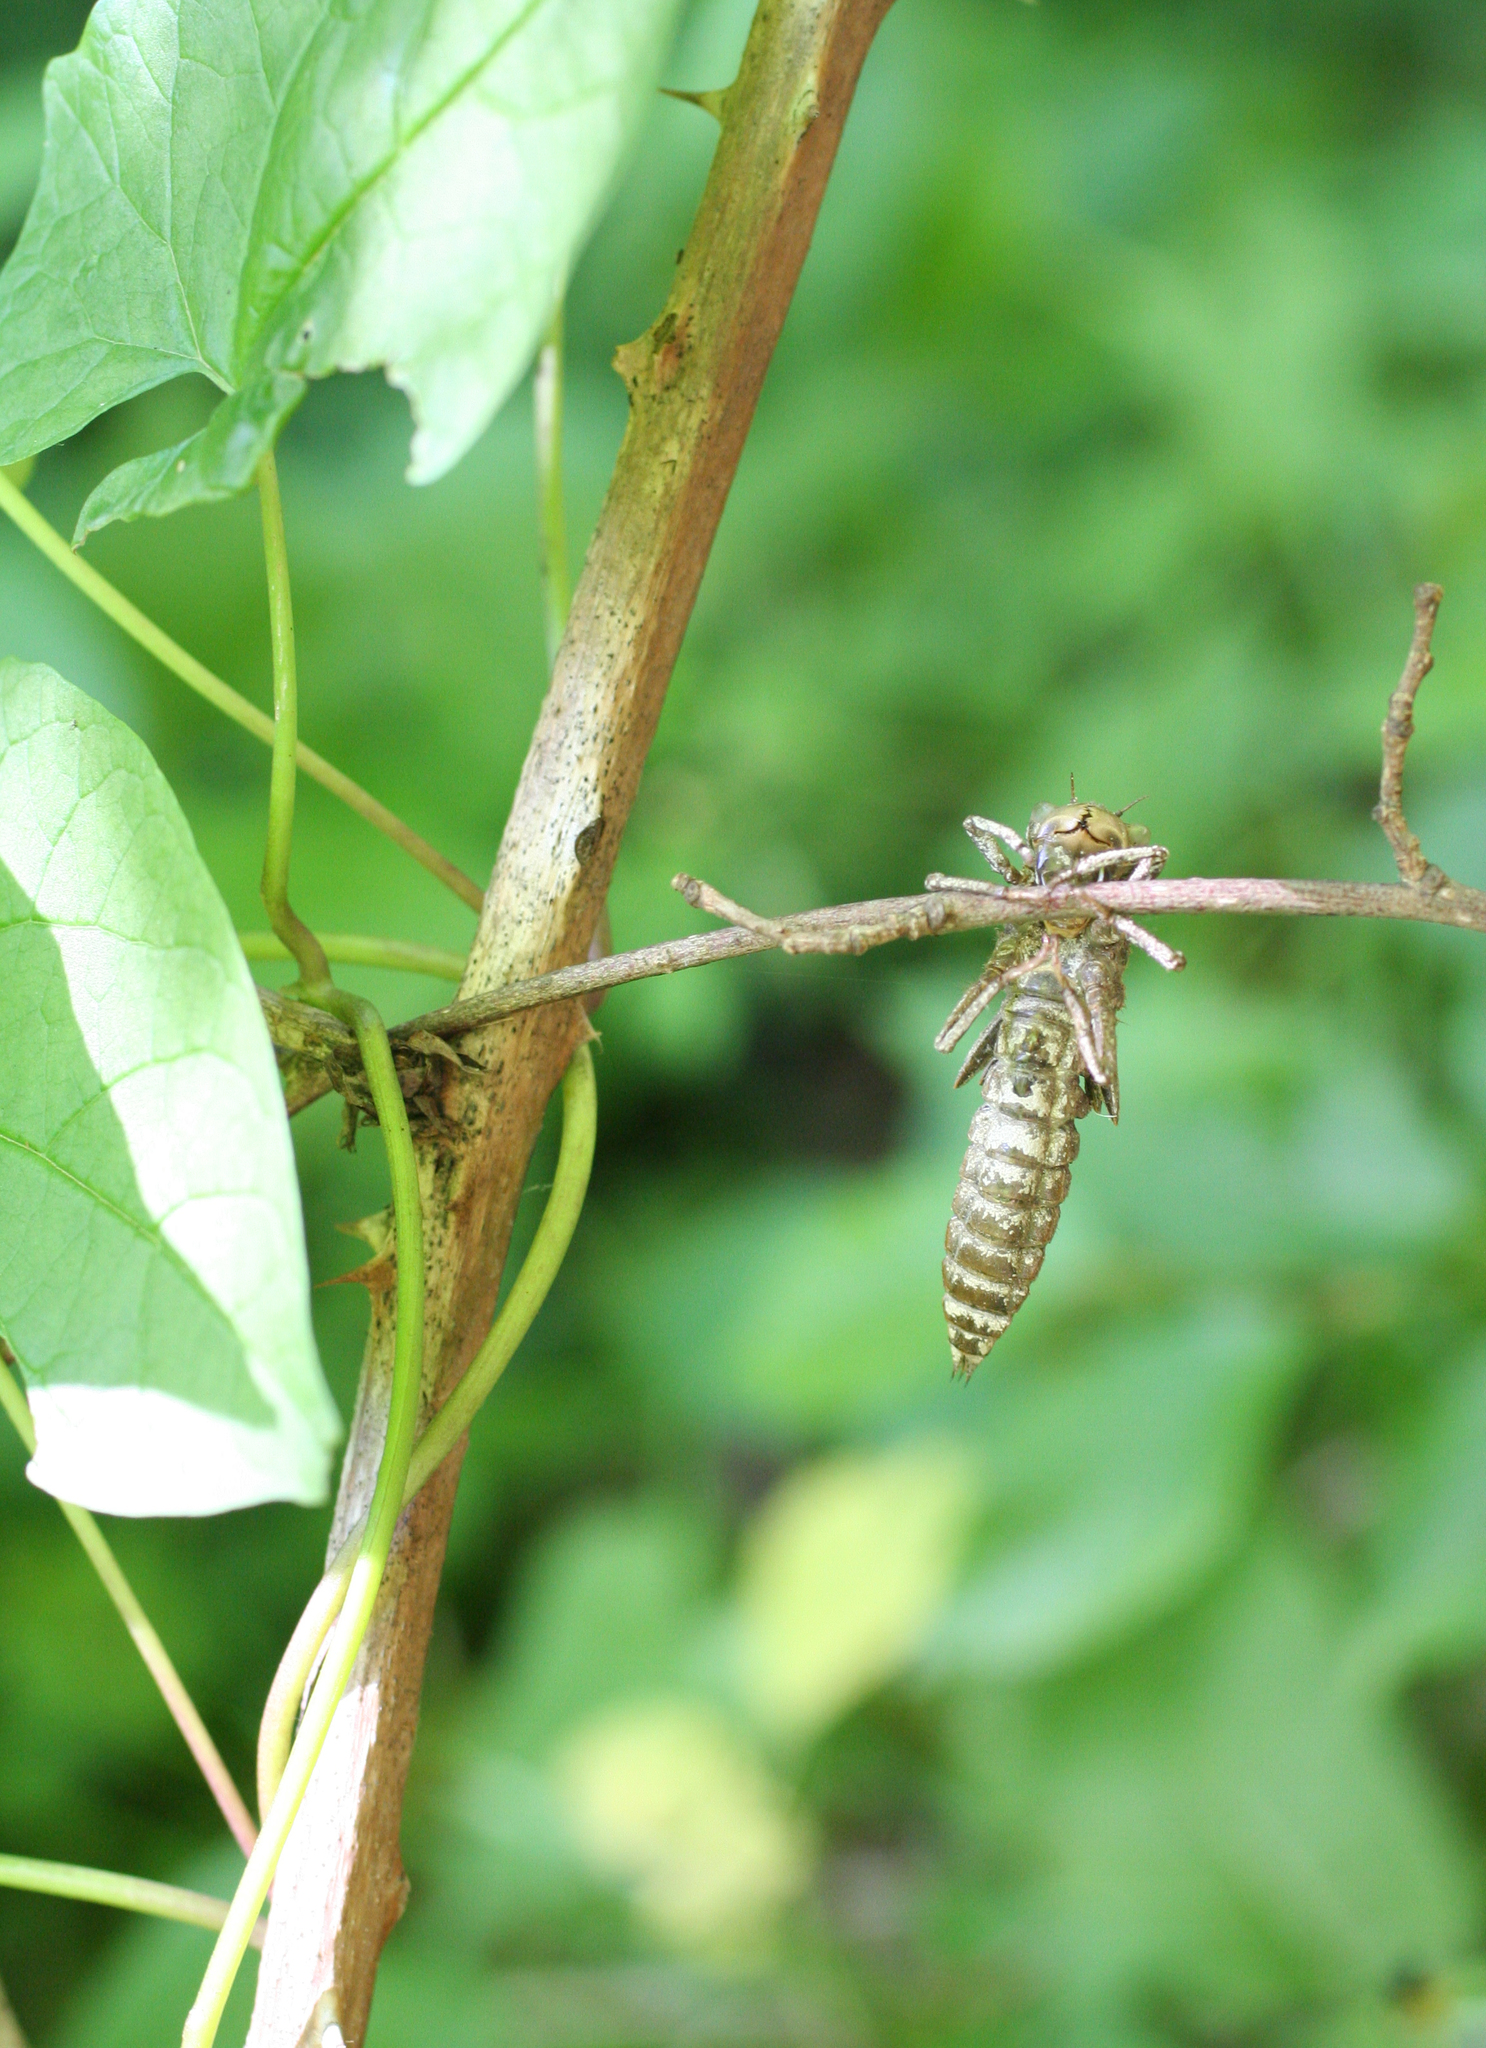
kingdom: Animalia
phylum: Arthropoda
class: Insecta
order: Odonata
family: Cordulegastridae
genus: Cordulegaster
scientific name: Cordulegaster charpentieri
